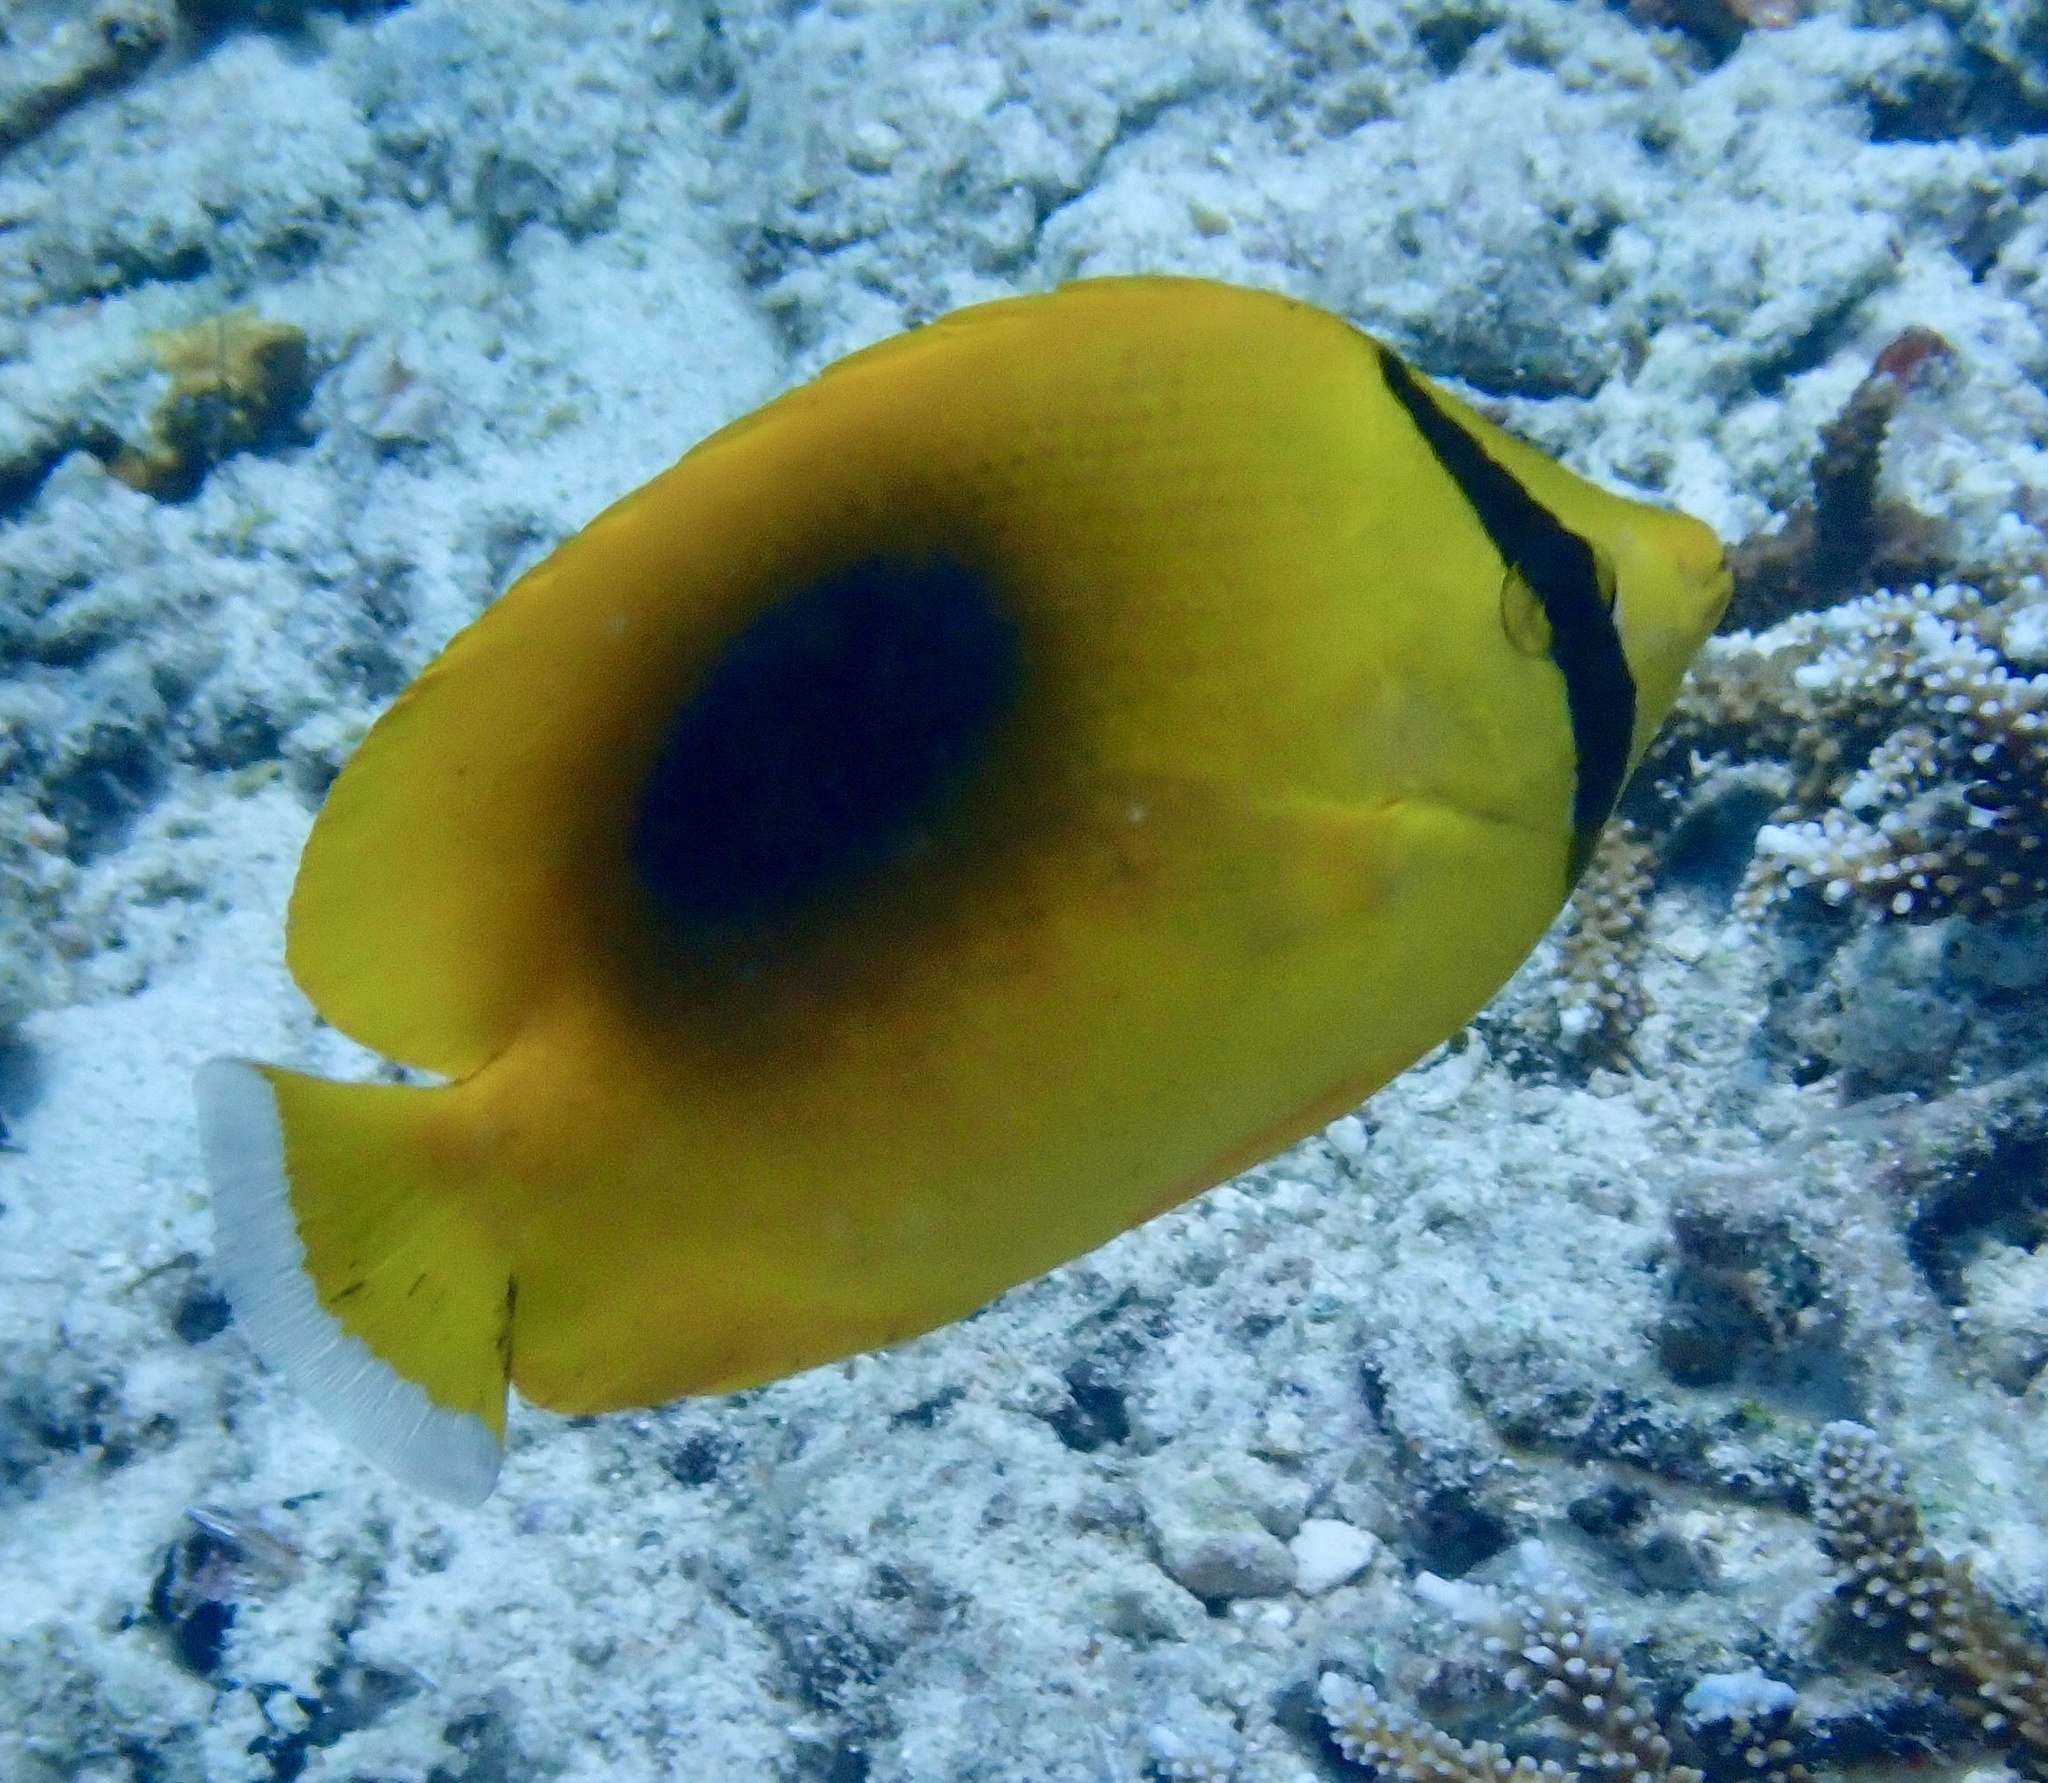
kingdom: Animalia
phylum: Chordata
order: Perciformes
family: Chaetodontidae
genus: Chaetodon
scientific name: Chaetodon speculum
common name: Mirror butterflyfish
